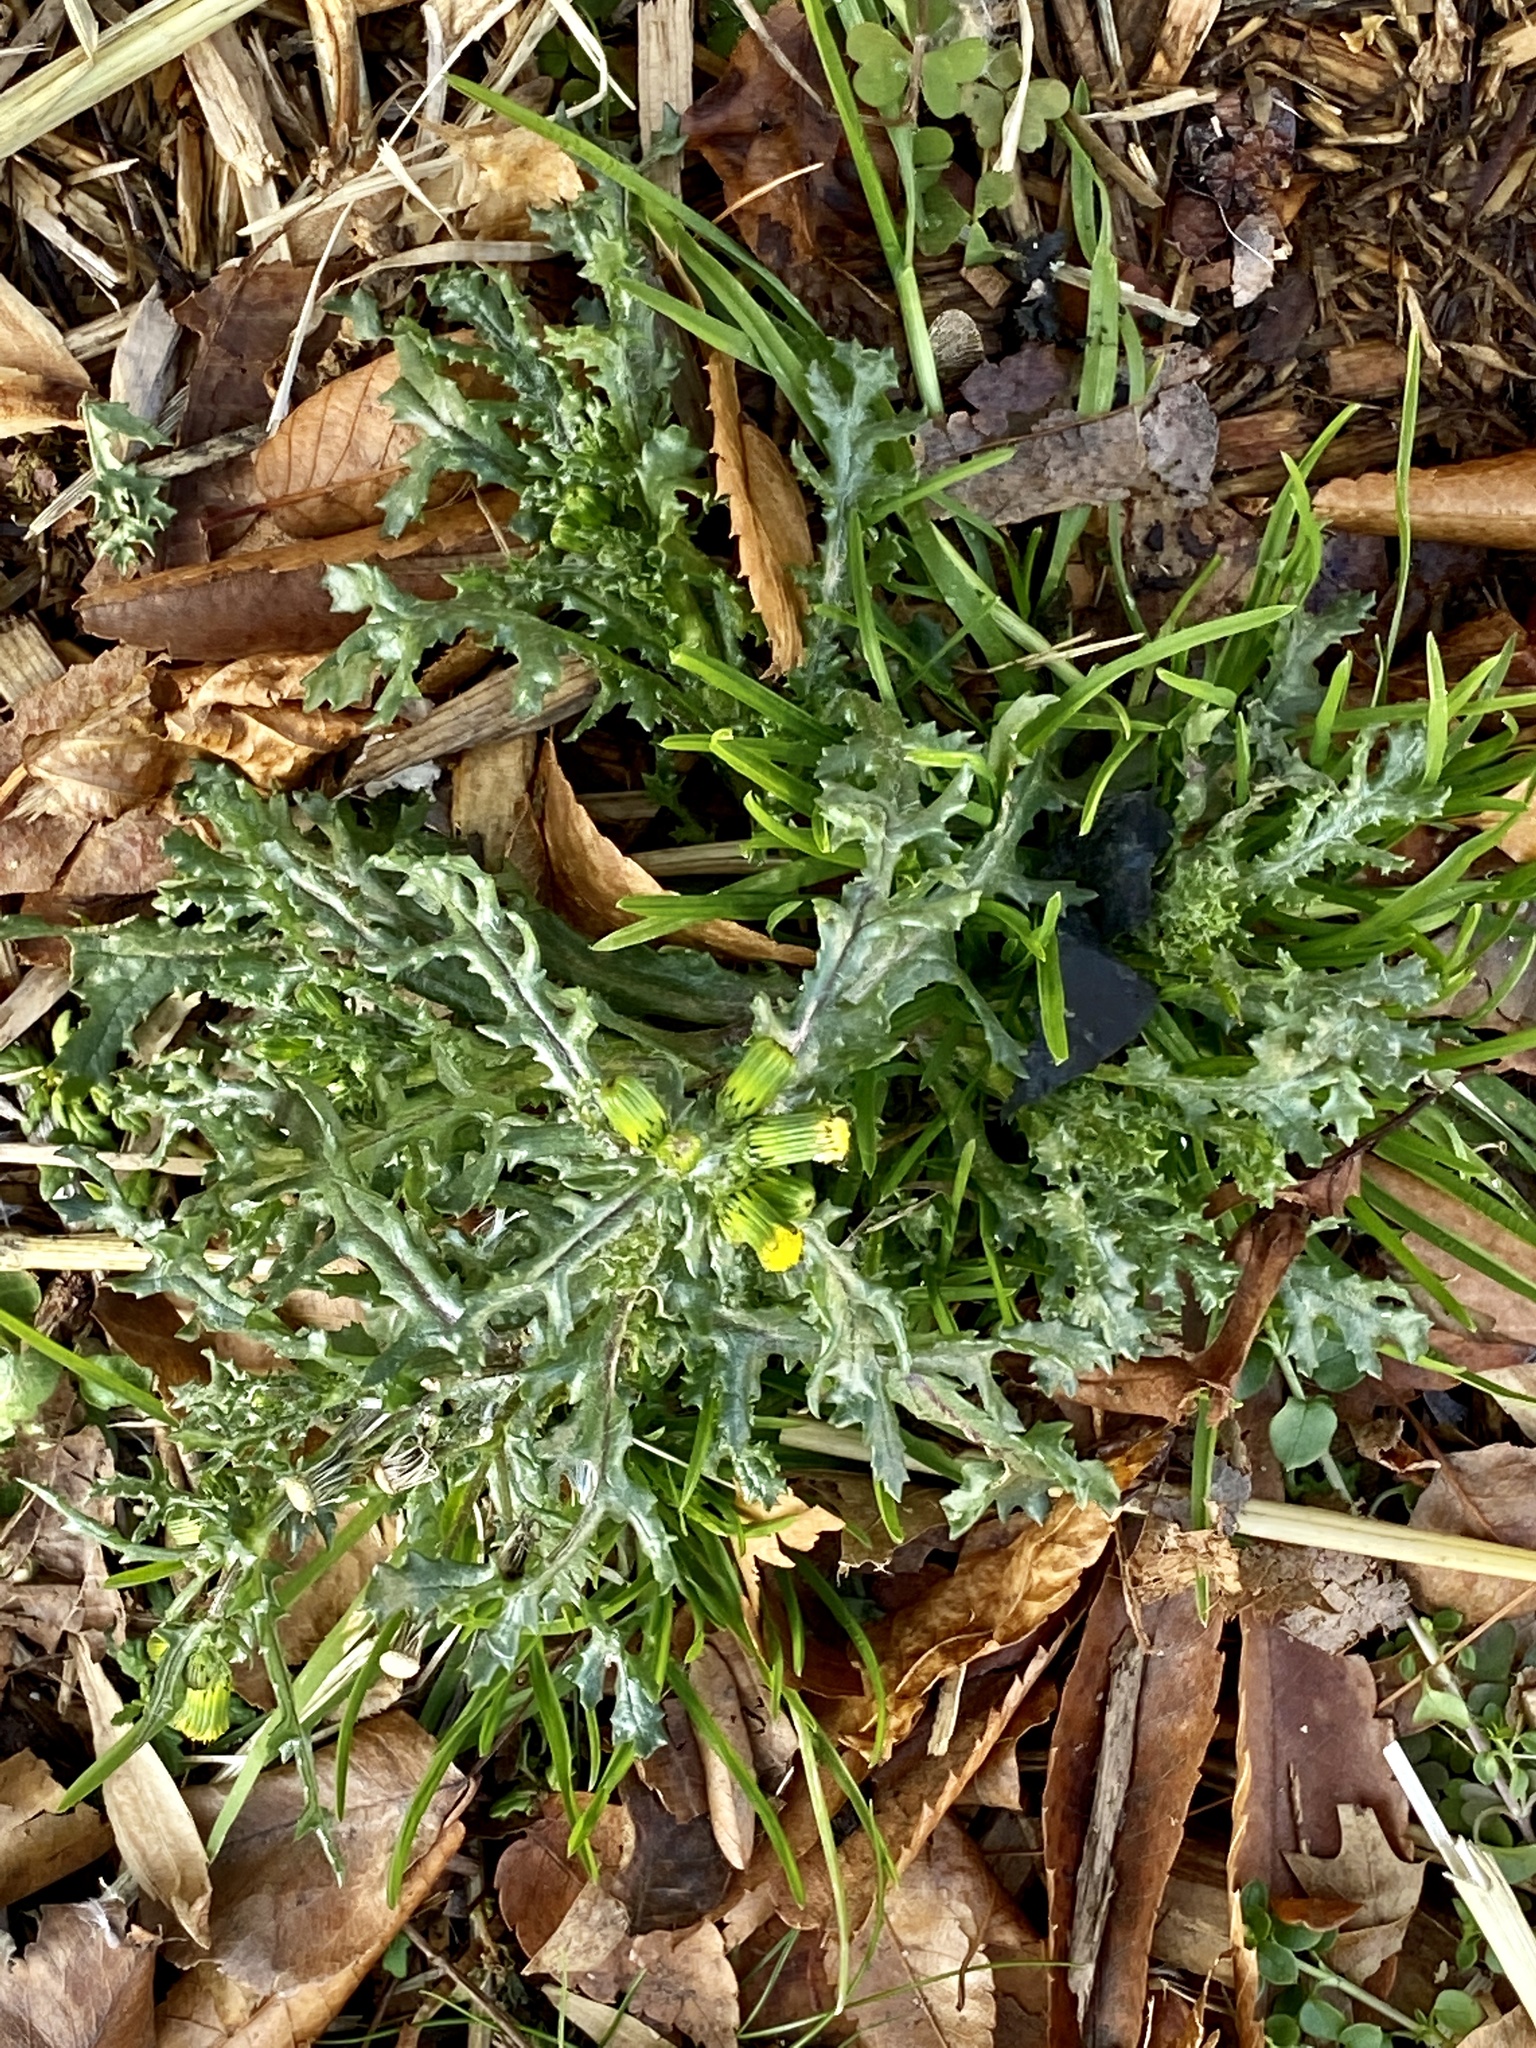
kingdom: Plantae
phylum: Tracheophyta
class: Magnoliopsida
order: Asterales
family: Asteraceae
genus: Senecio
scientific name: Senecio vulgaris
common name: Old-man-in-the-spring
